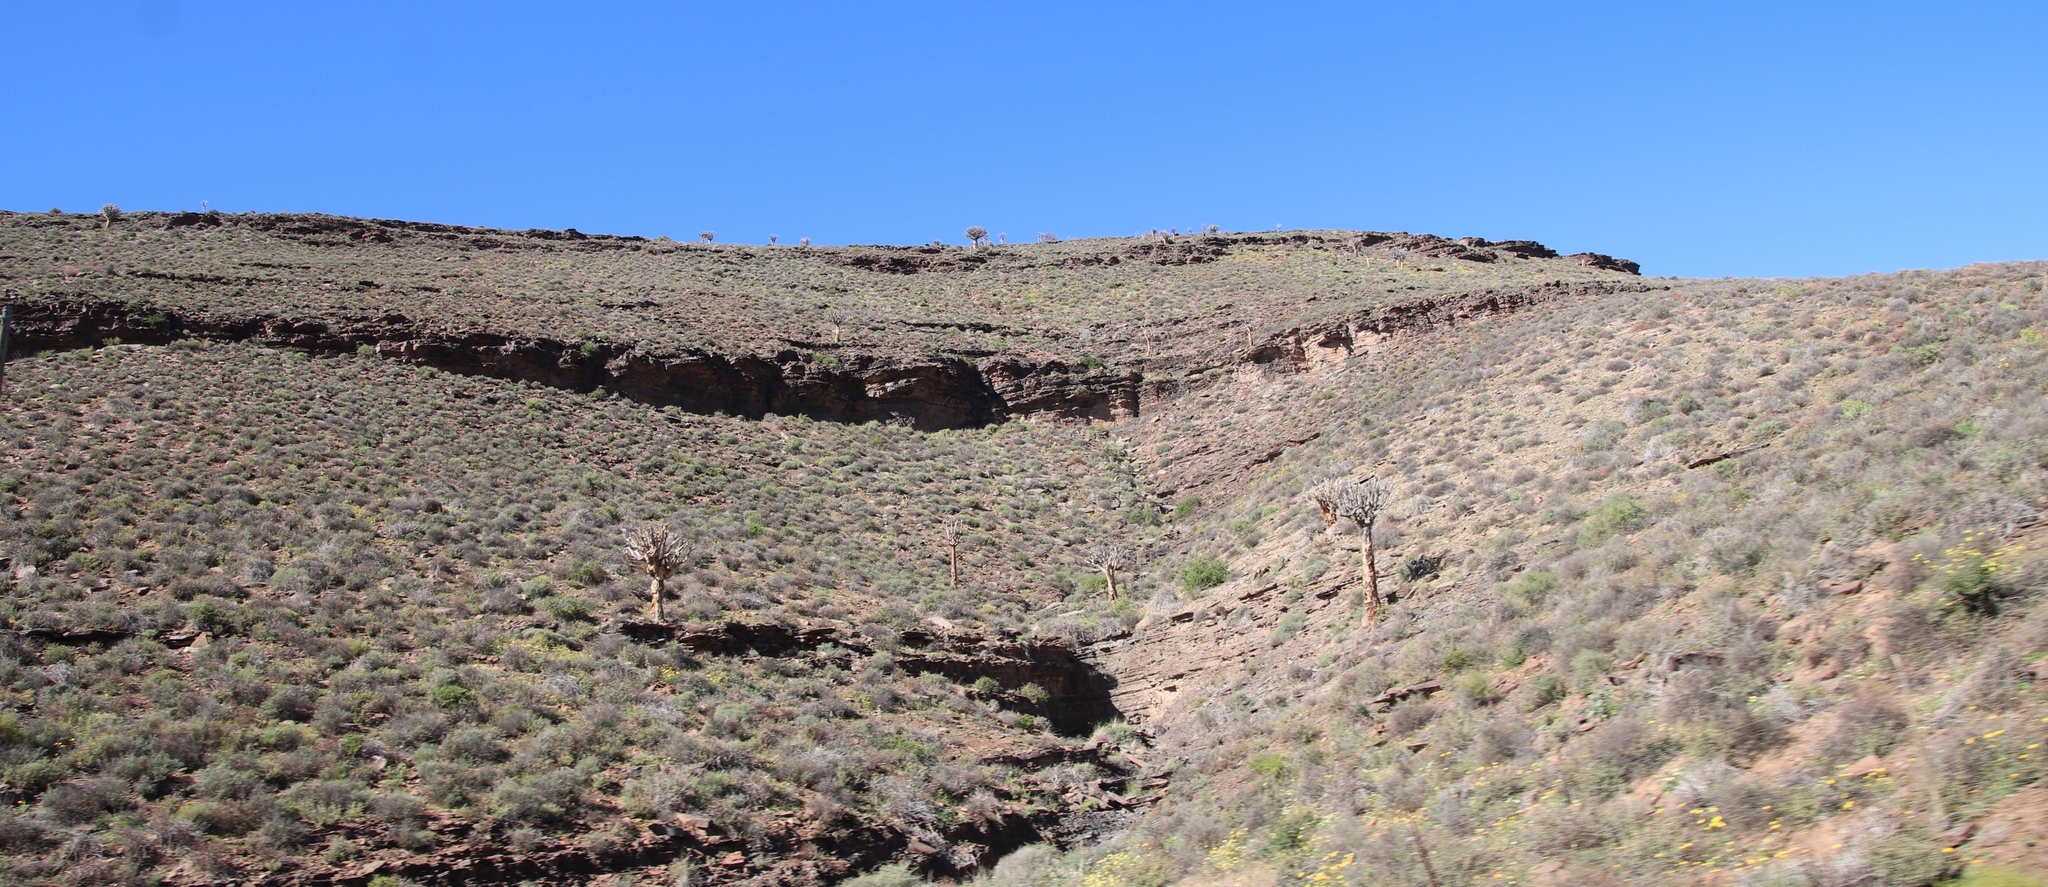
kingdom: Plantae
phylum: Tracheophyta
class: Liliopsida
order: Asparagales
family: Asphodelaceae
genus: Aloidendron
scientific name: Aloidendron dichotomum
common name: Quiver tree
